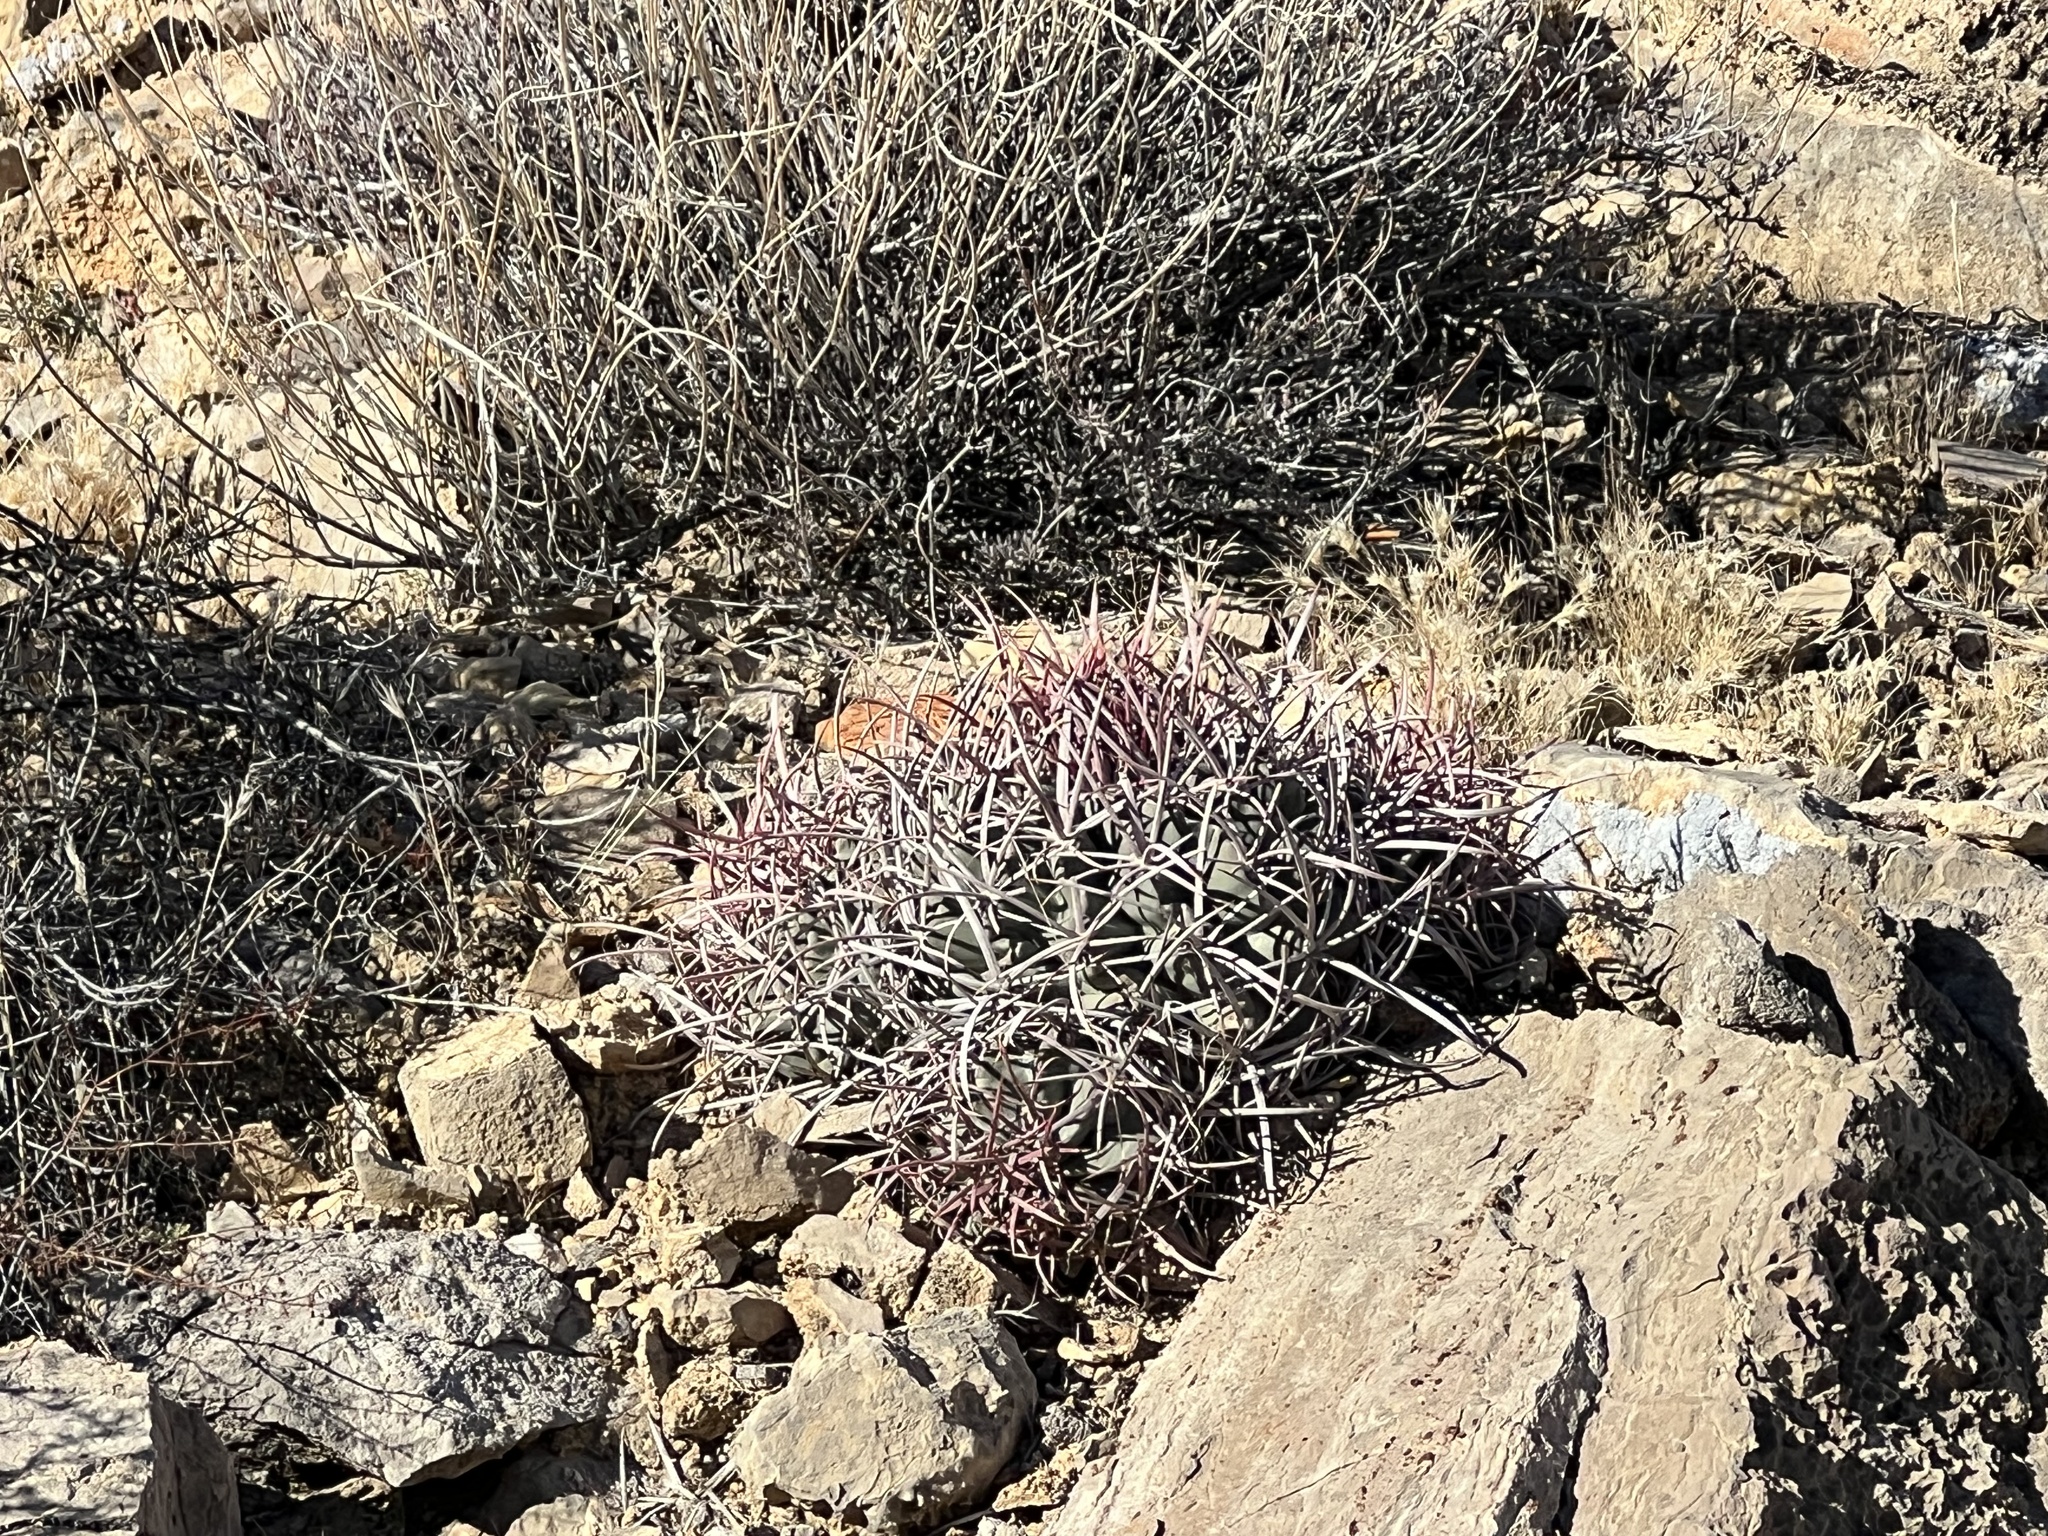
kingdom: Plantae
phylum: Tracheophyta
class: Magnoliopsida
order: Caryophyllales
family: Cactaceae
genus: Echinocactus
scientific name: Echinocactus polycephalus
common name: Cottontop cactus
